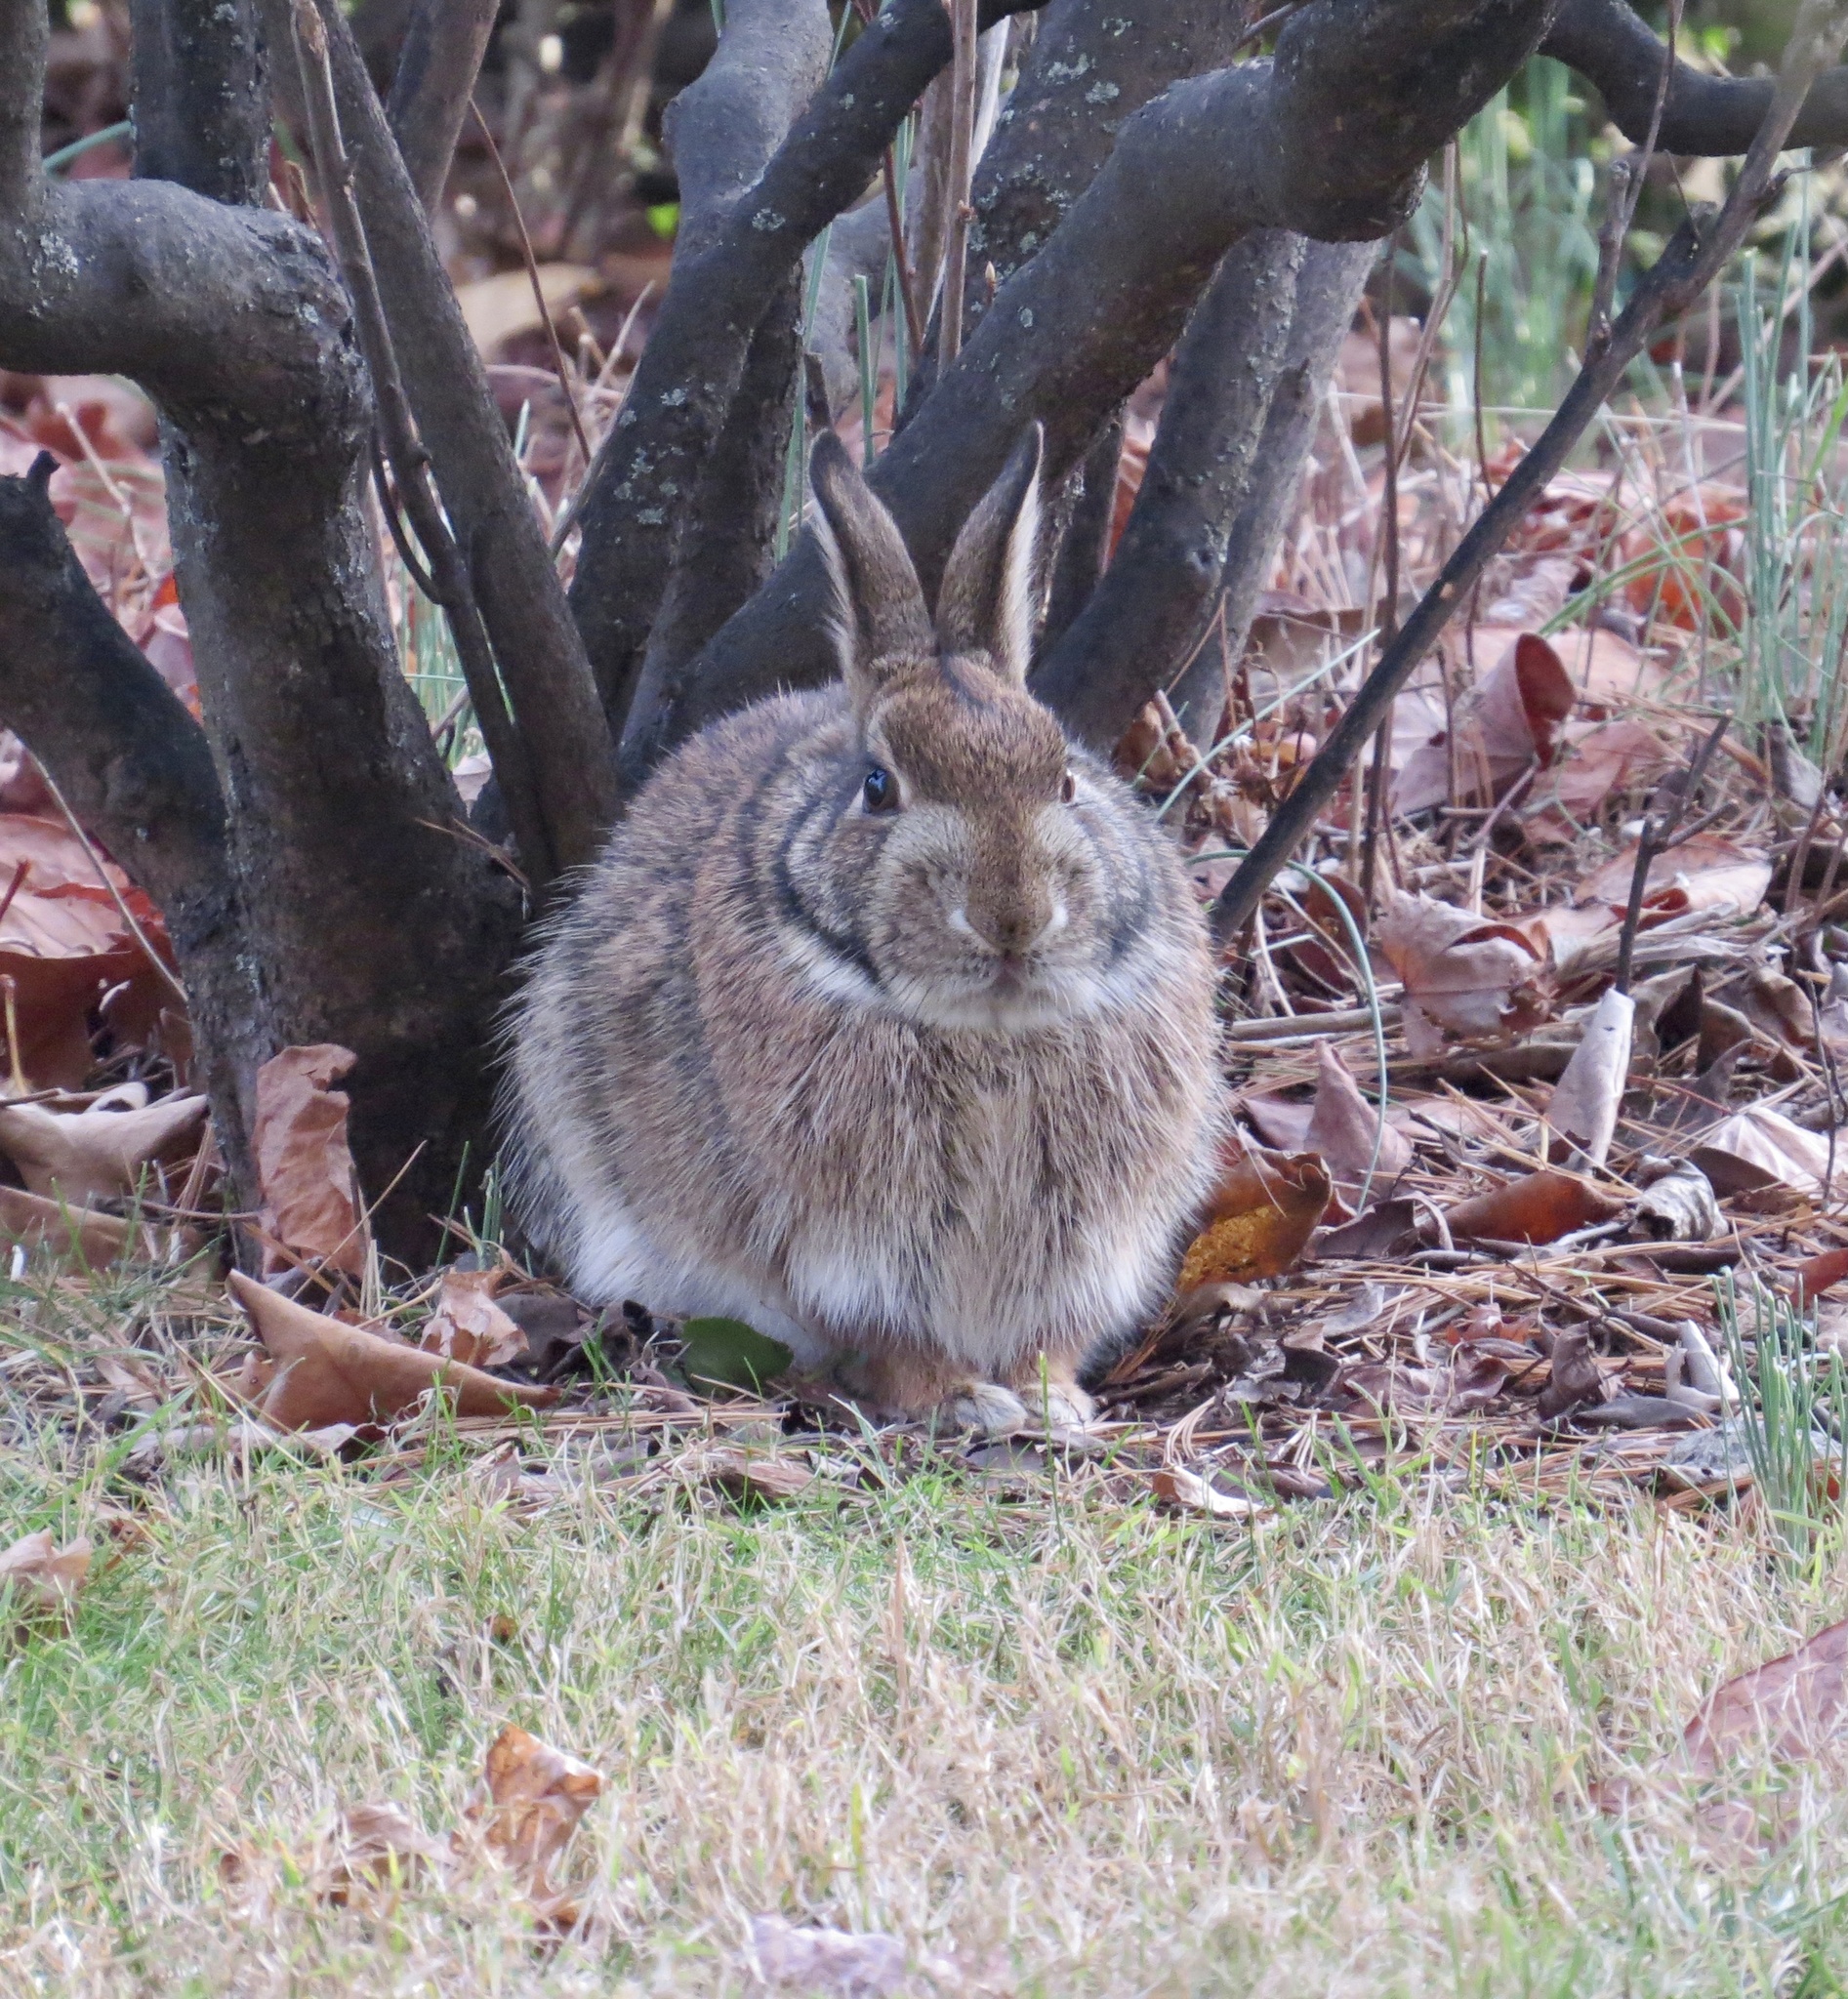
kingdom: Animalia
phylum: Chordata
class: Mammalia
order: Lagomorpha
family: Leporidae
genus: Sylvilagus
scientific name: Sylvilagus floridanus
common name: Eastern cottontail
